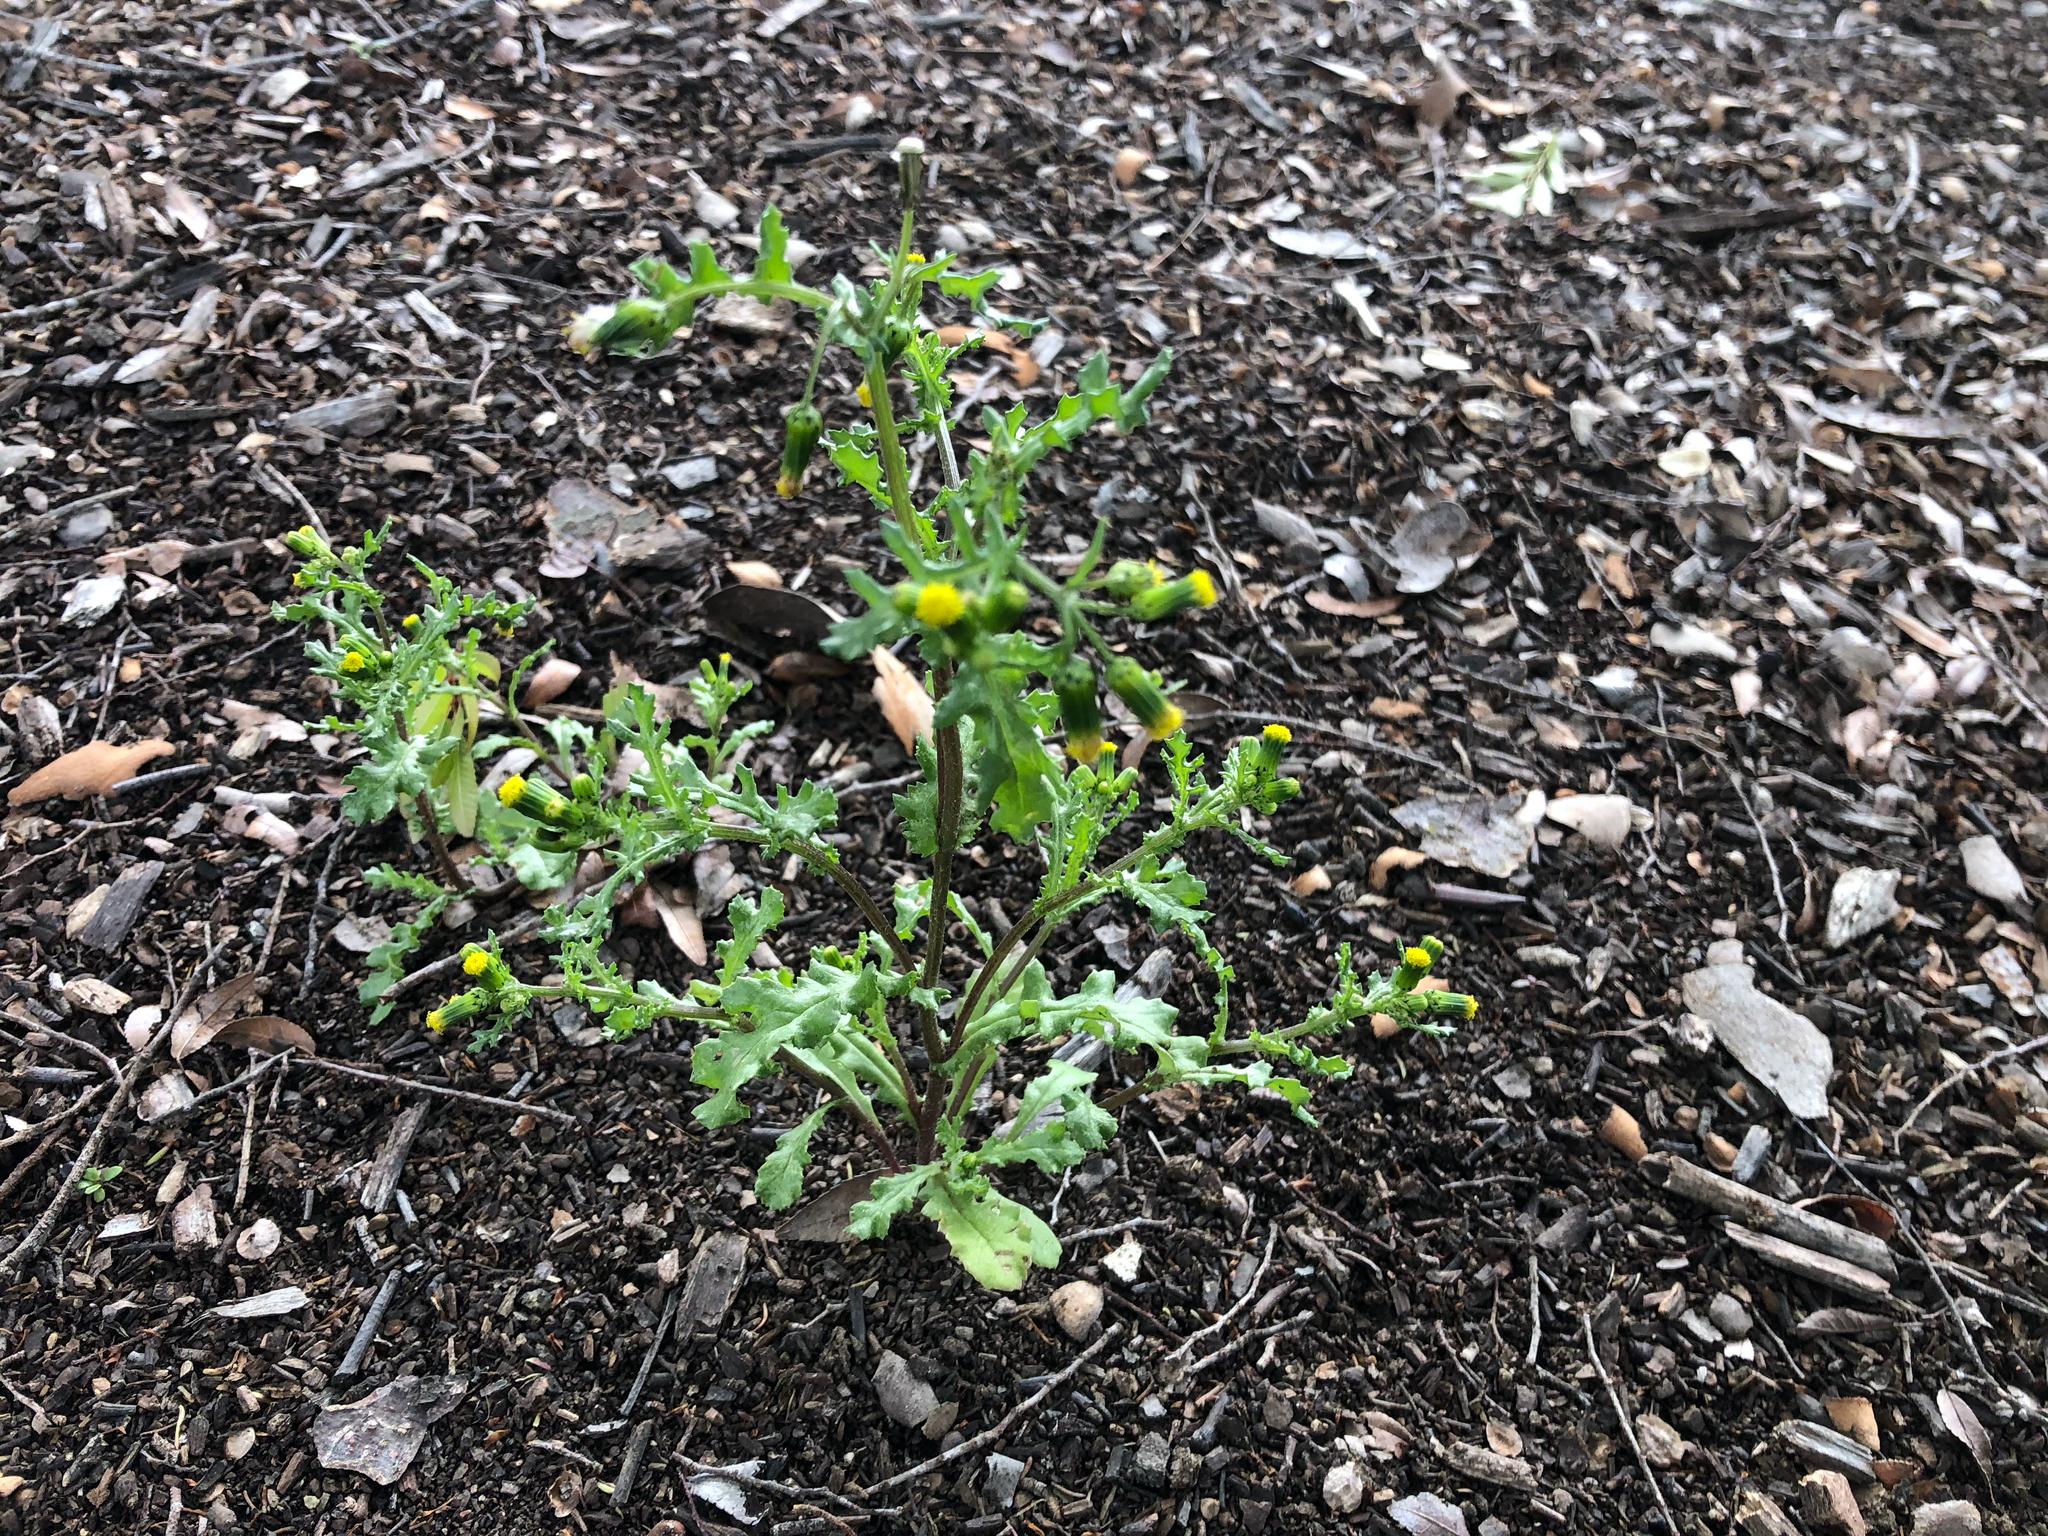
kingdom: Plantae
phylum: Tracheophyta
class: Magnoliopsida
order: Asterales
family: Asteraceae
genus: Senecio
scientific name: Senecio vulgaris
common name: Old-man-in-the-spring
